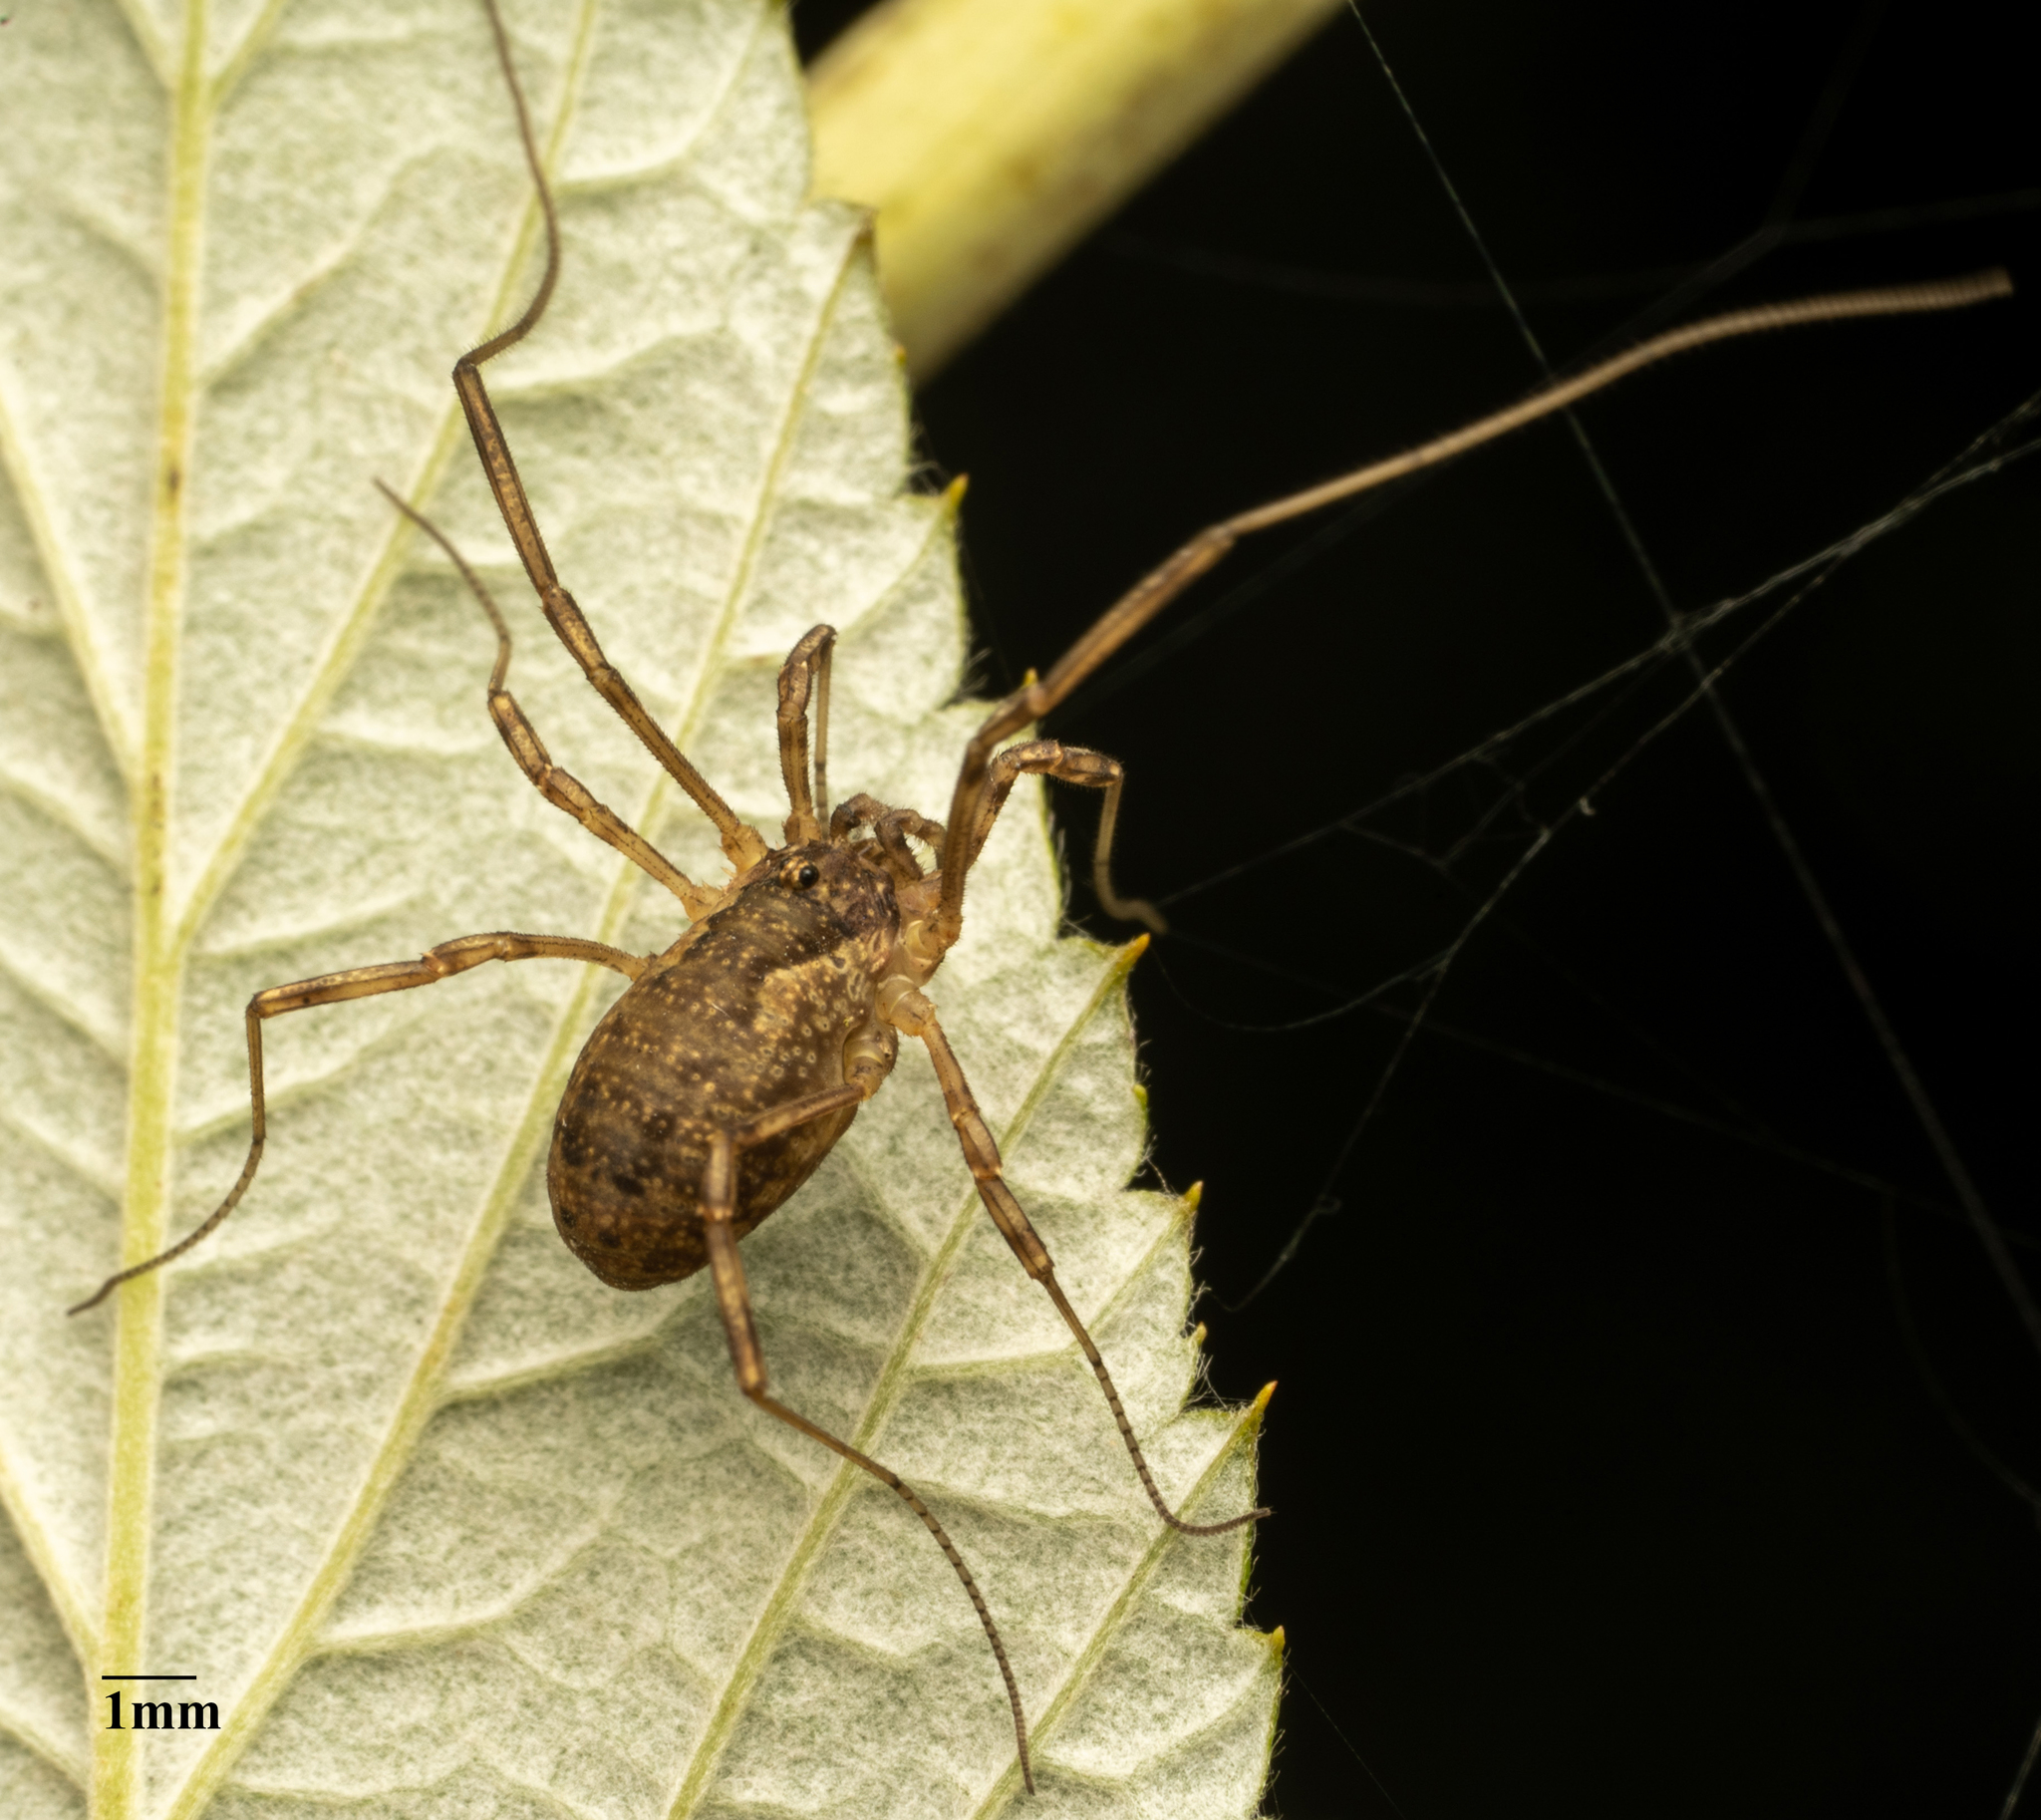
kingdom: Animalia
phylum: Arthropoda
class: Arachnida
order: Opiliones
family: Phalangiidae
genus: Oligolophus
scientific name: Oligolophus tridens
